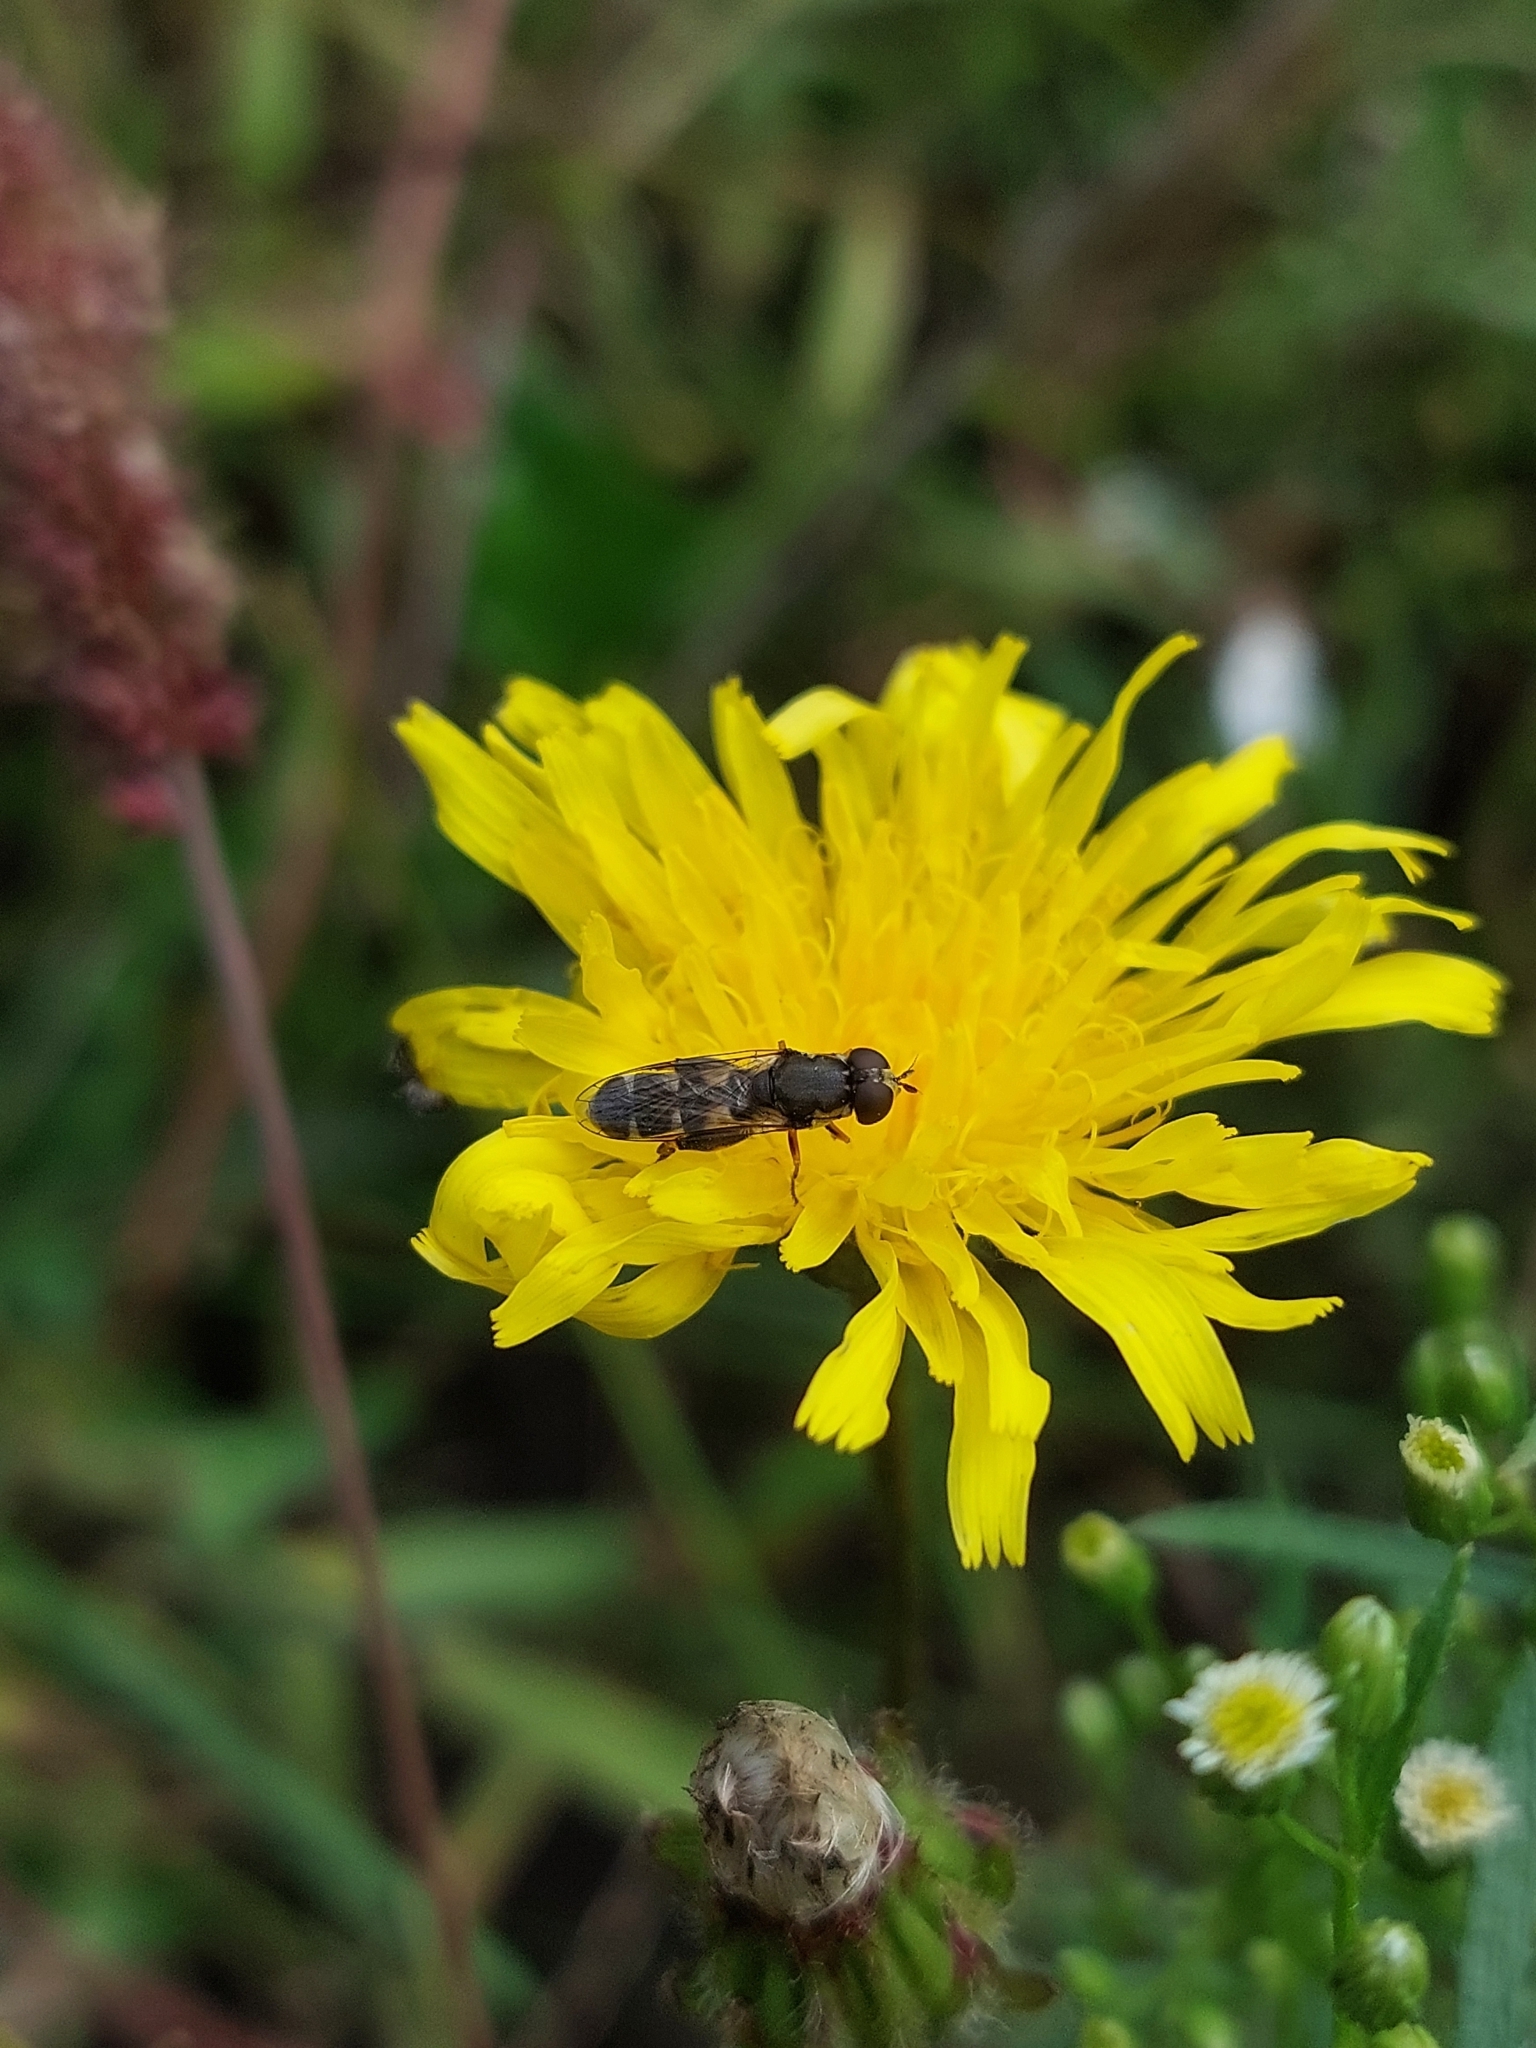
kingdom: Animalia
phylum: Arthropoda
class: Insecta
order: Diptera
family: Syrphidae
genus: Syritta
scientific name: Syritta pipiens
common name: Hover fly
